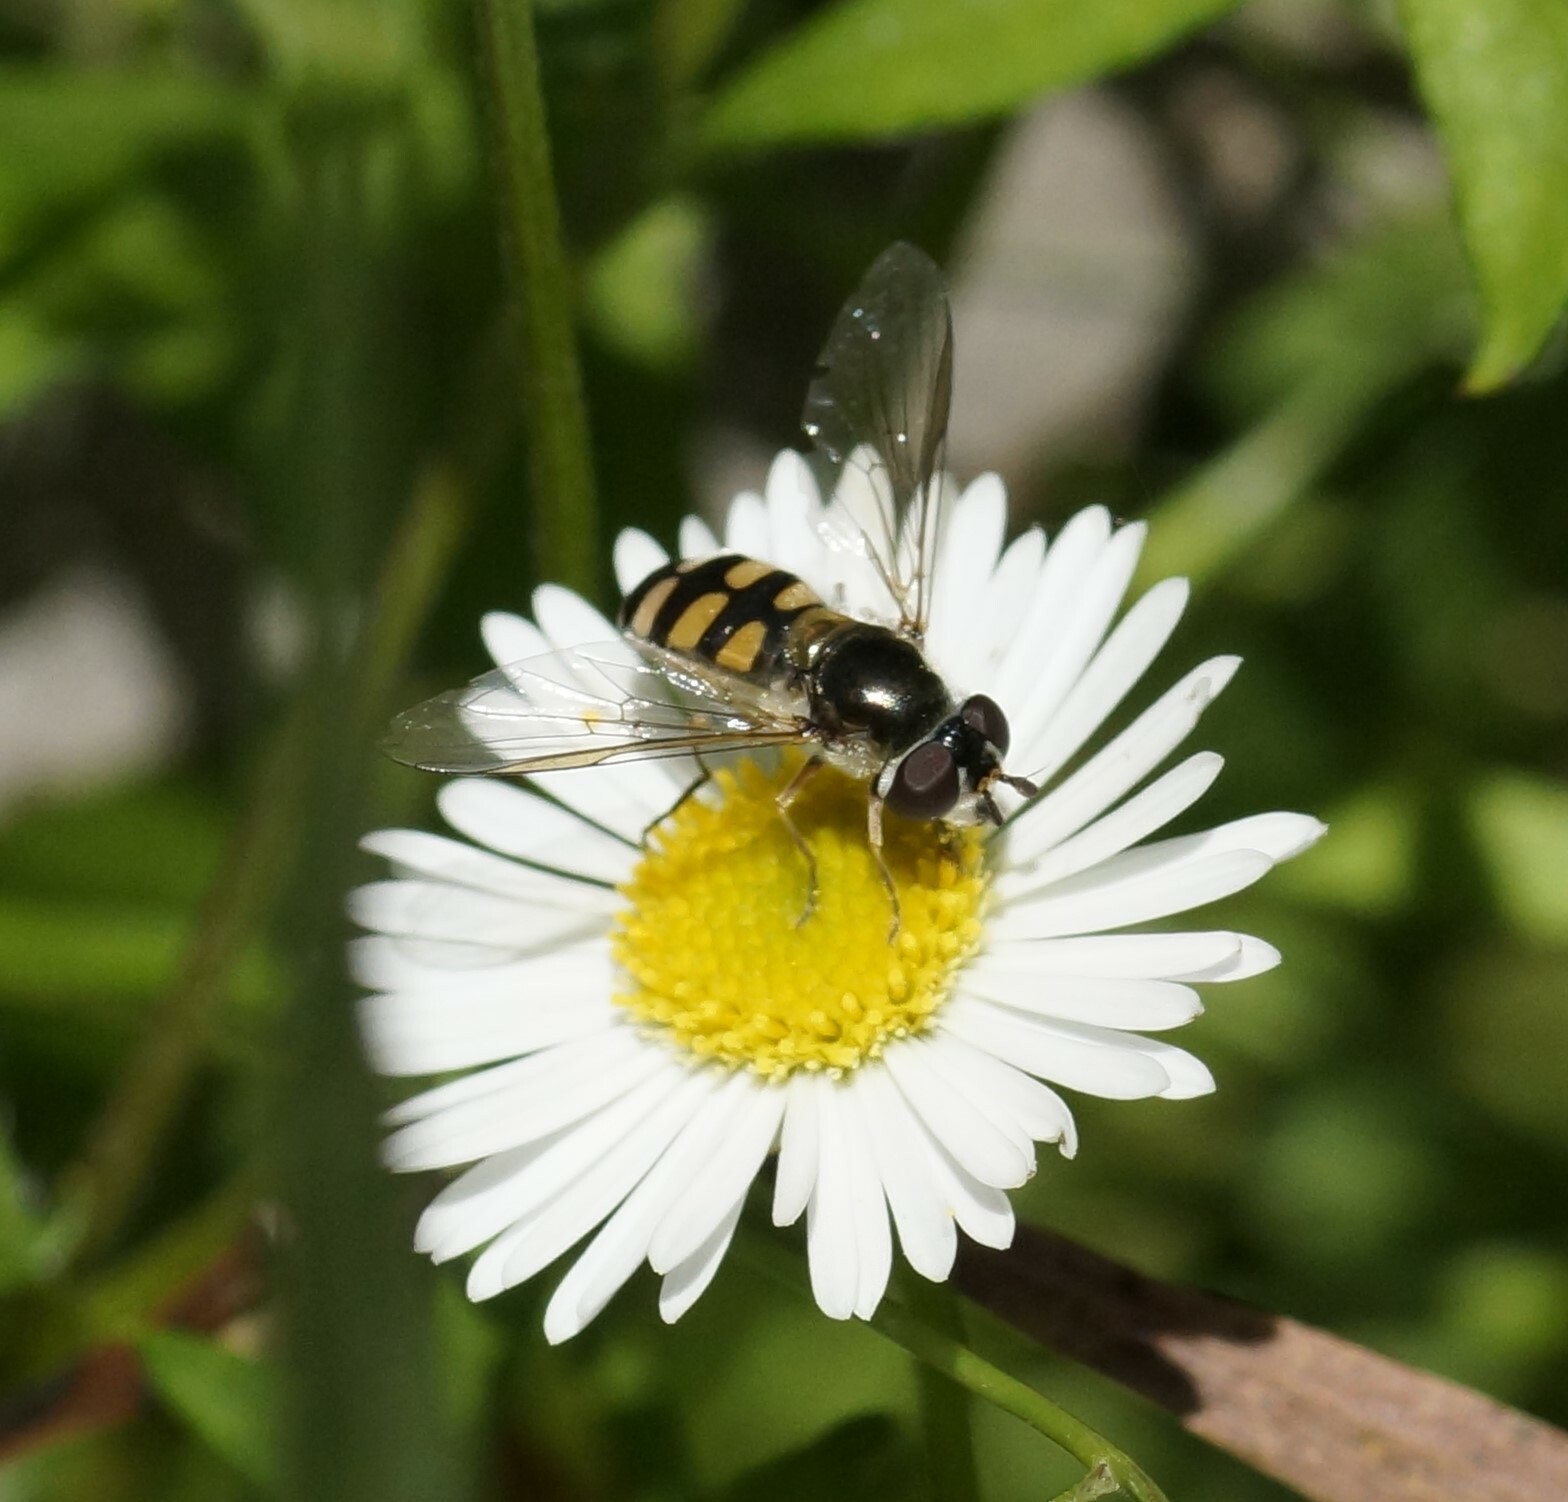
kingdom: Animalia
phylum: Arthropoda
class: Insecta
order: Diptera
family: Syrphidae
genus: Melangyna
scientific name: Melangyna viridiceps
